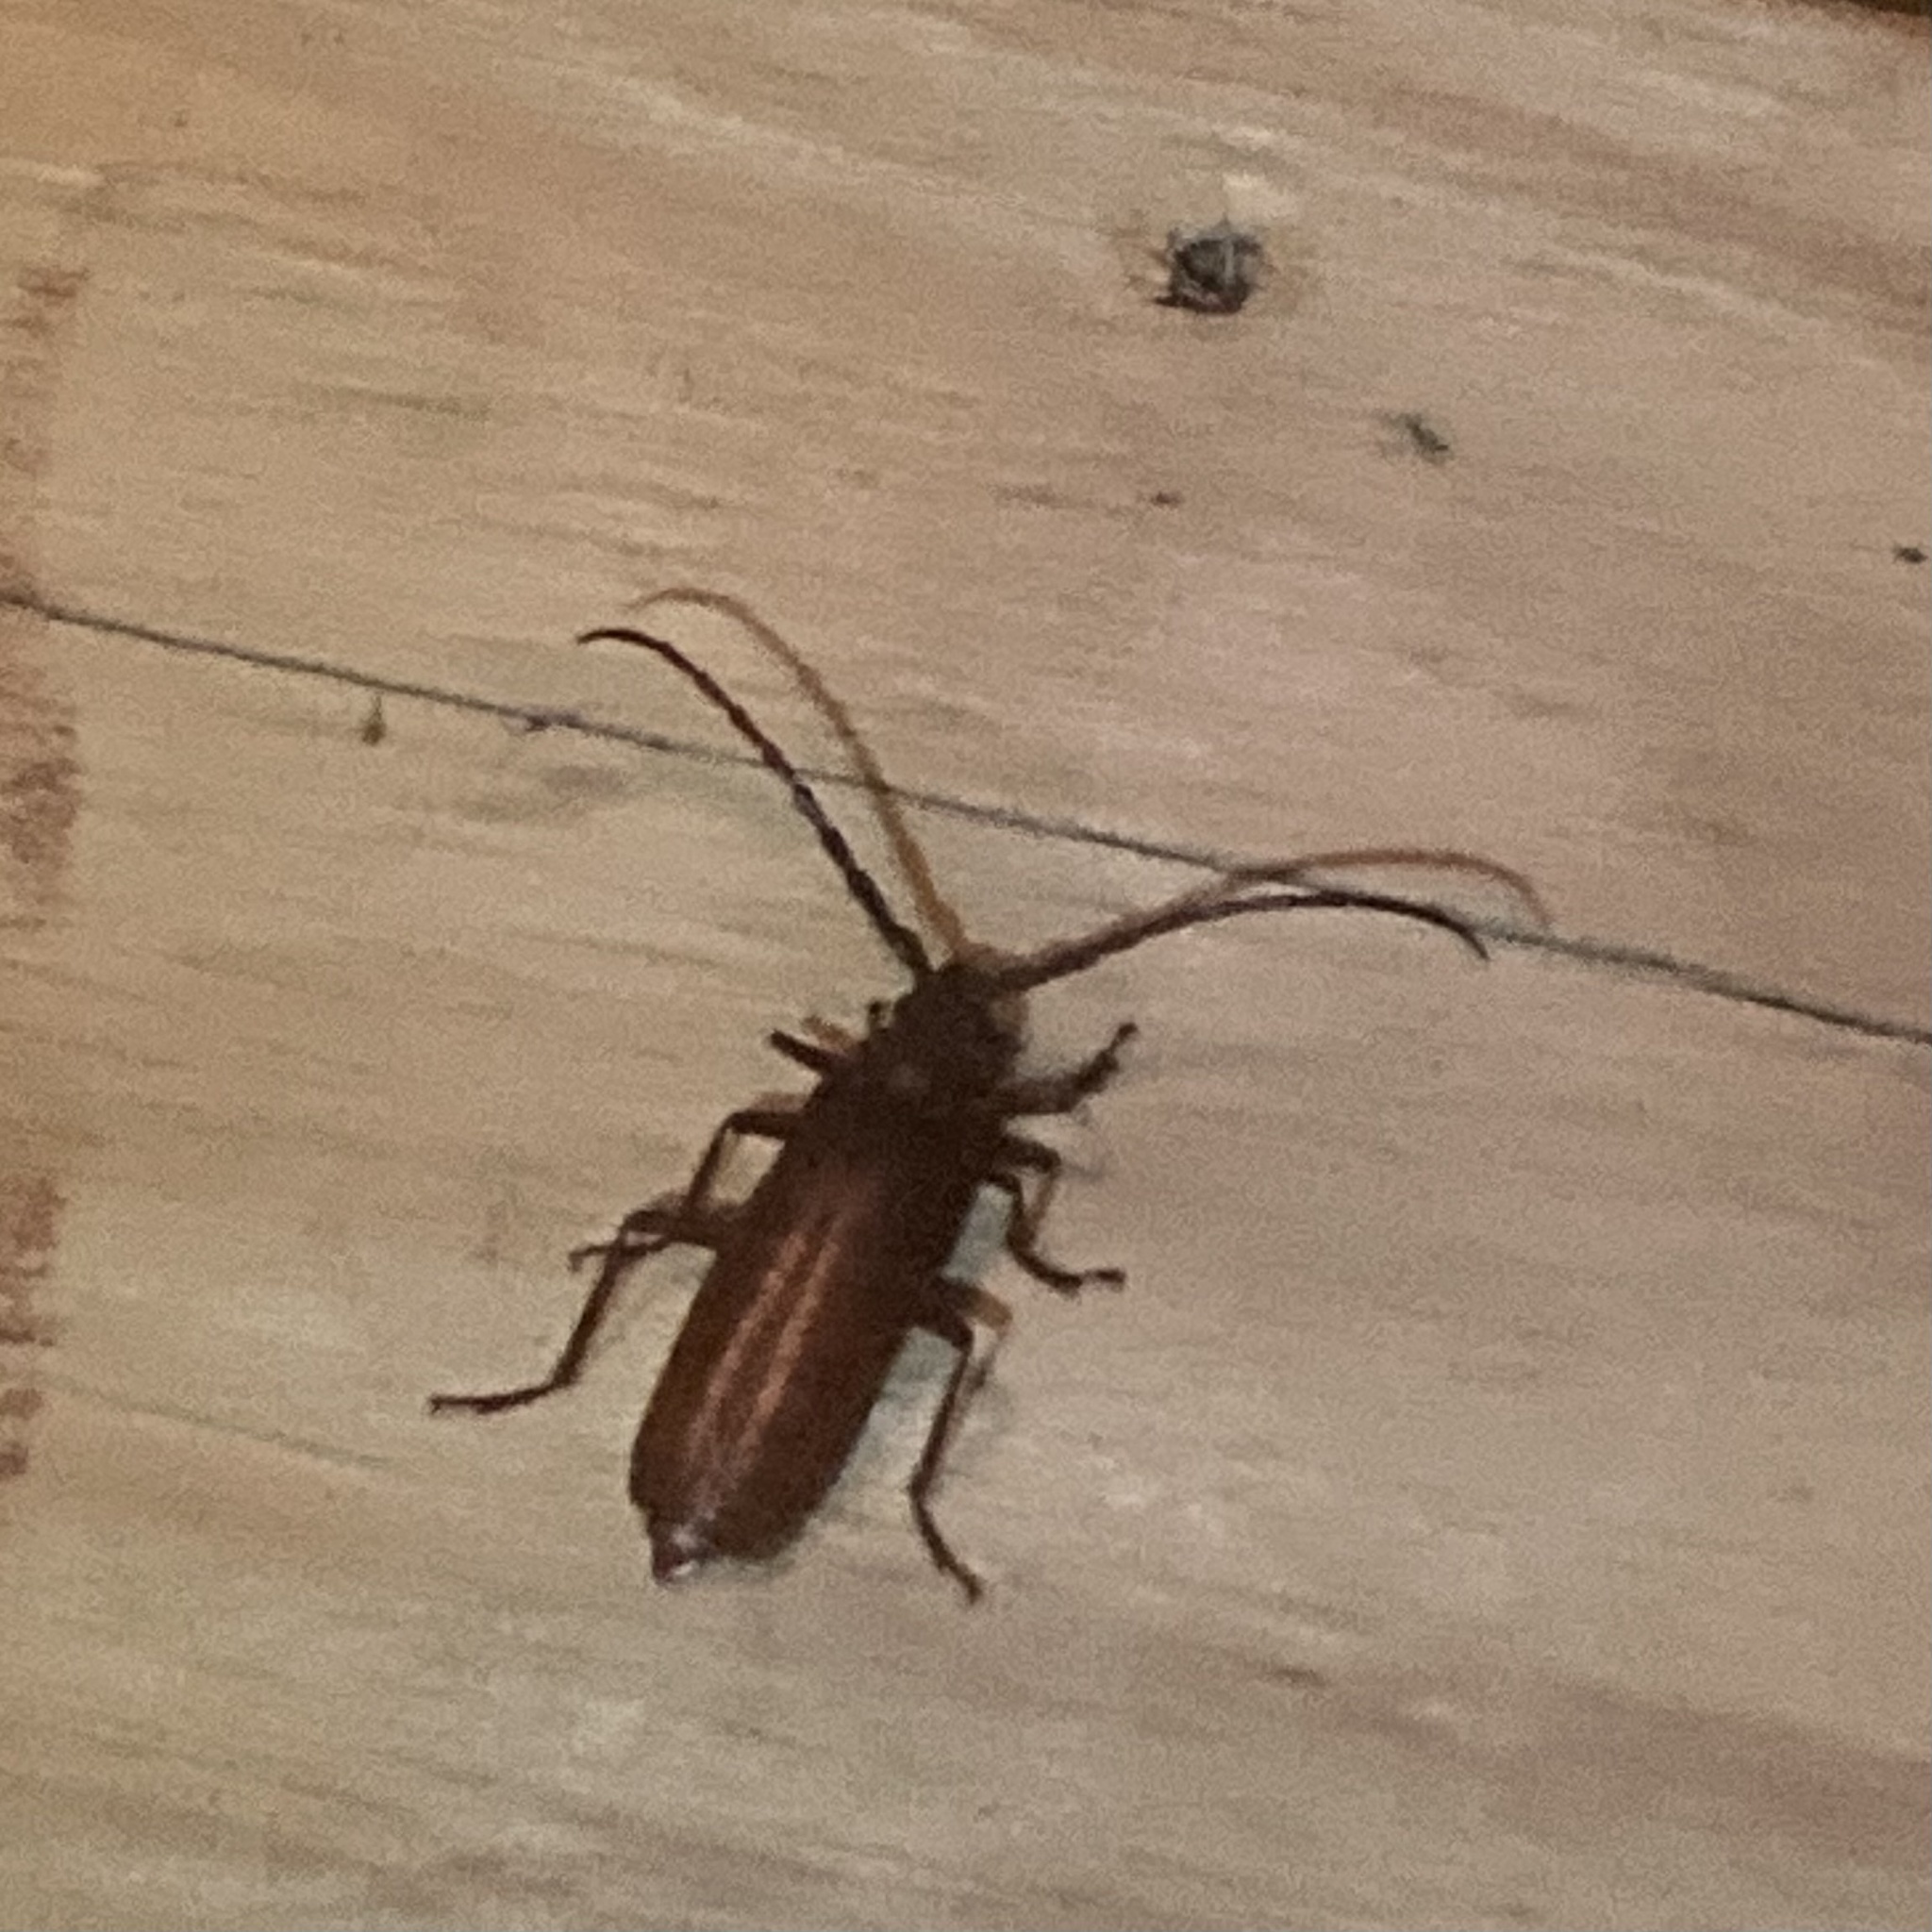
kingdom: Animalia
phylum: Arthropoda
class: Insecta
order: Coleoptera
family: Cerambycidae
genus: Orthosoma
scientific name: Orthosoma brunneum
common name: Brown prionid beetle
